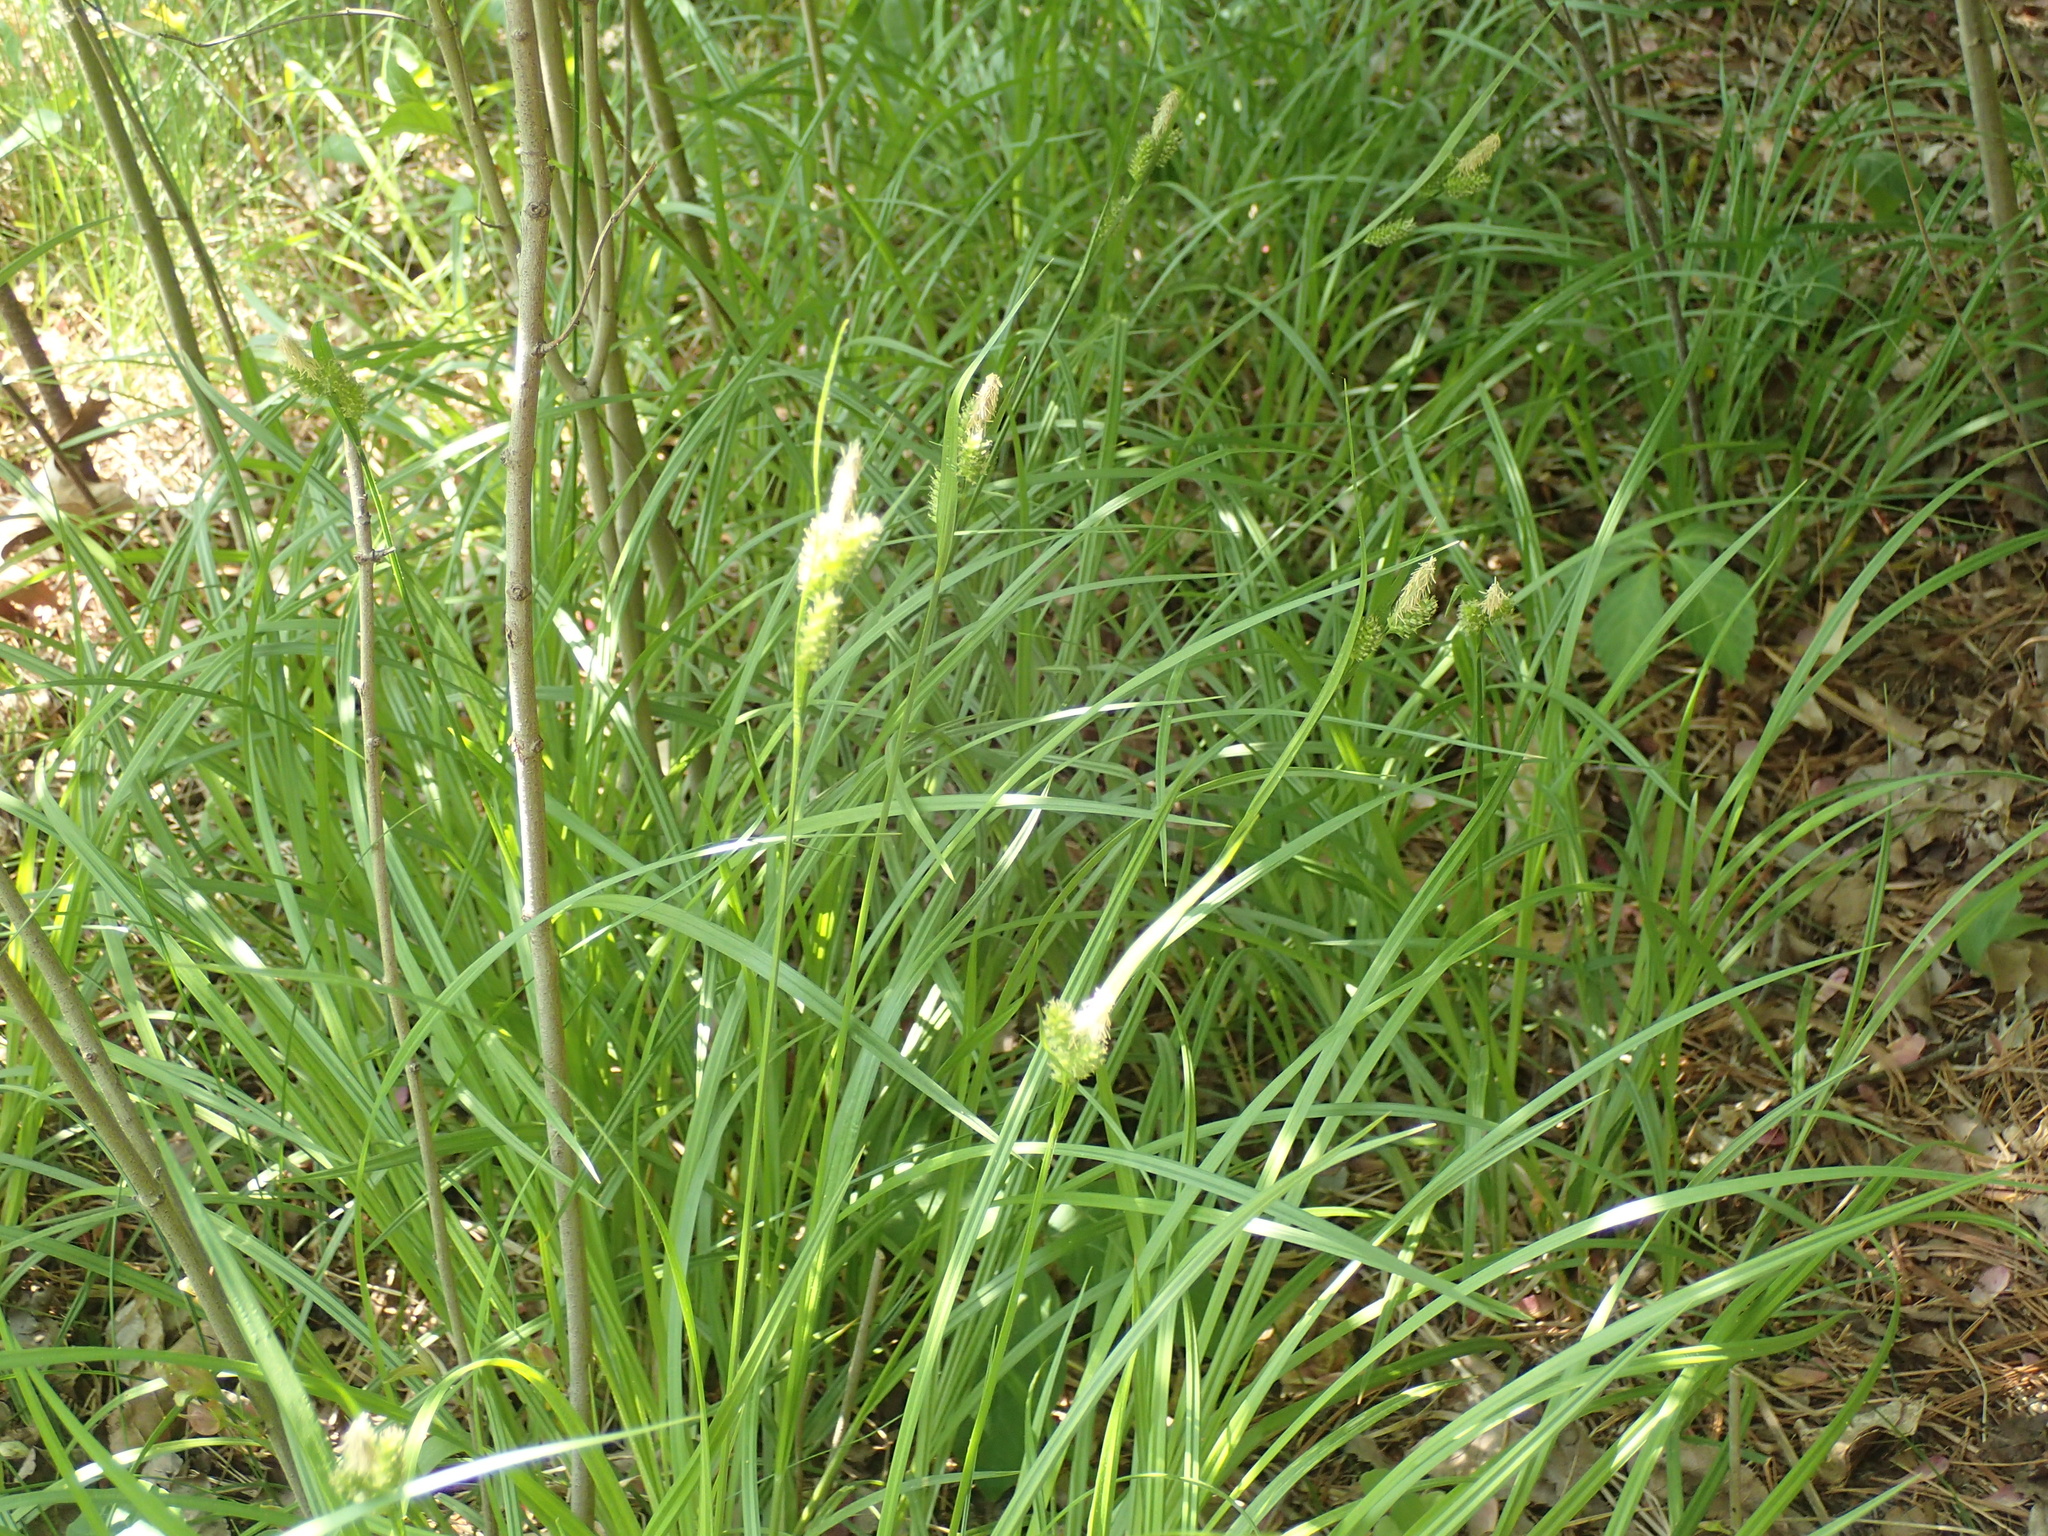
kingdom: Plantae
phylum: Tracheophyta
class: Liliopsida
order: Poales
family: Cyperaceae
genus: Carex
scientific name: Carex pallescens
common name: Pale sedge
